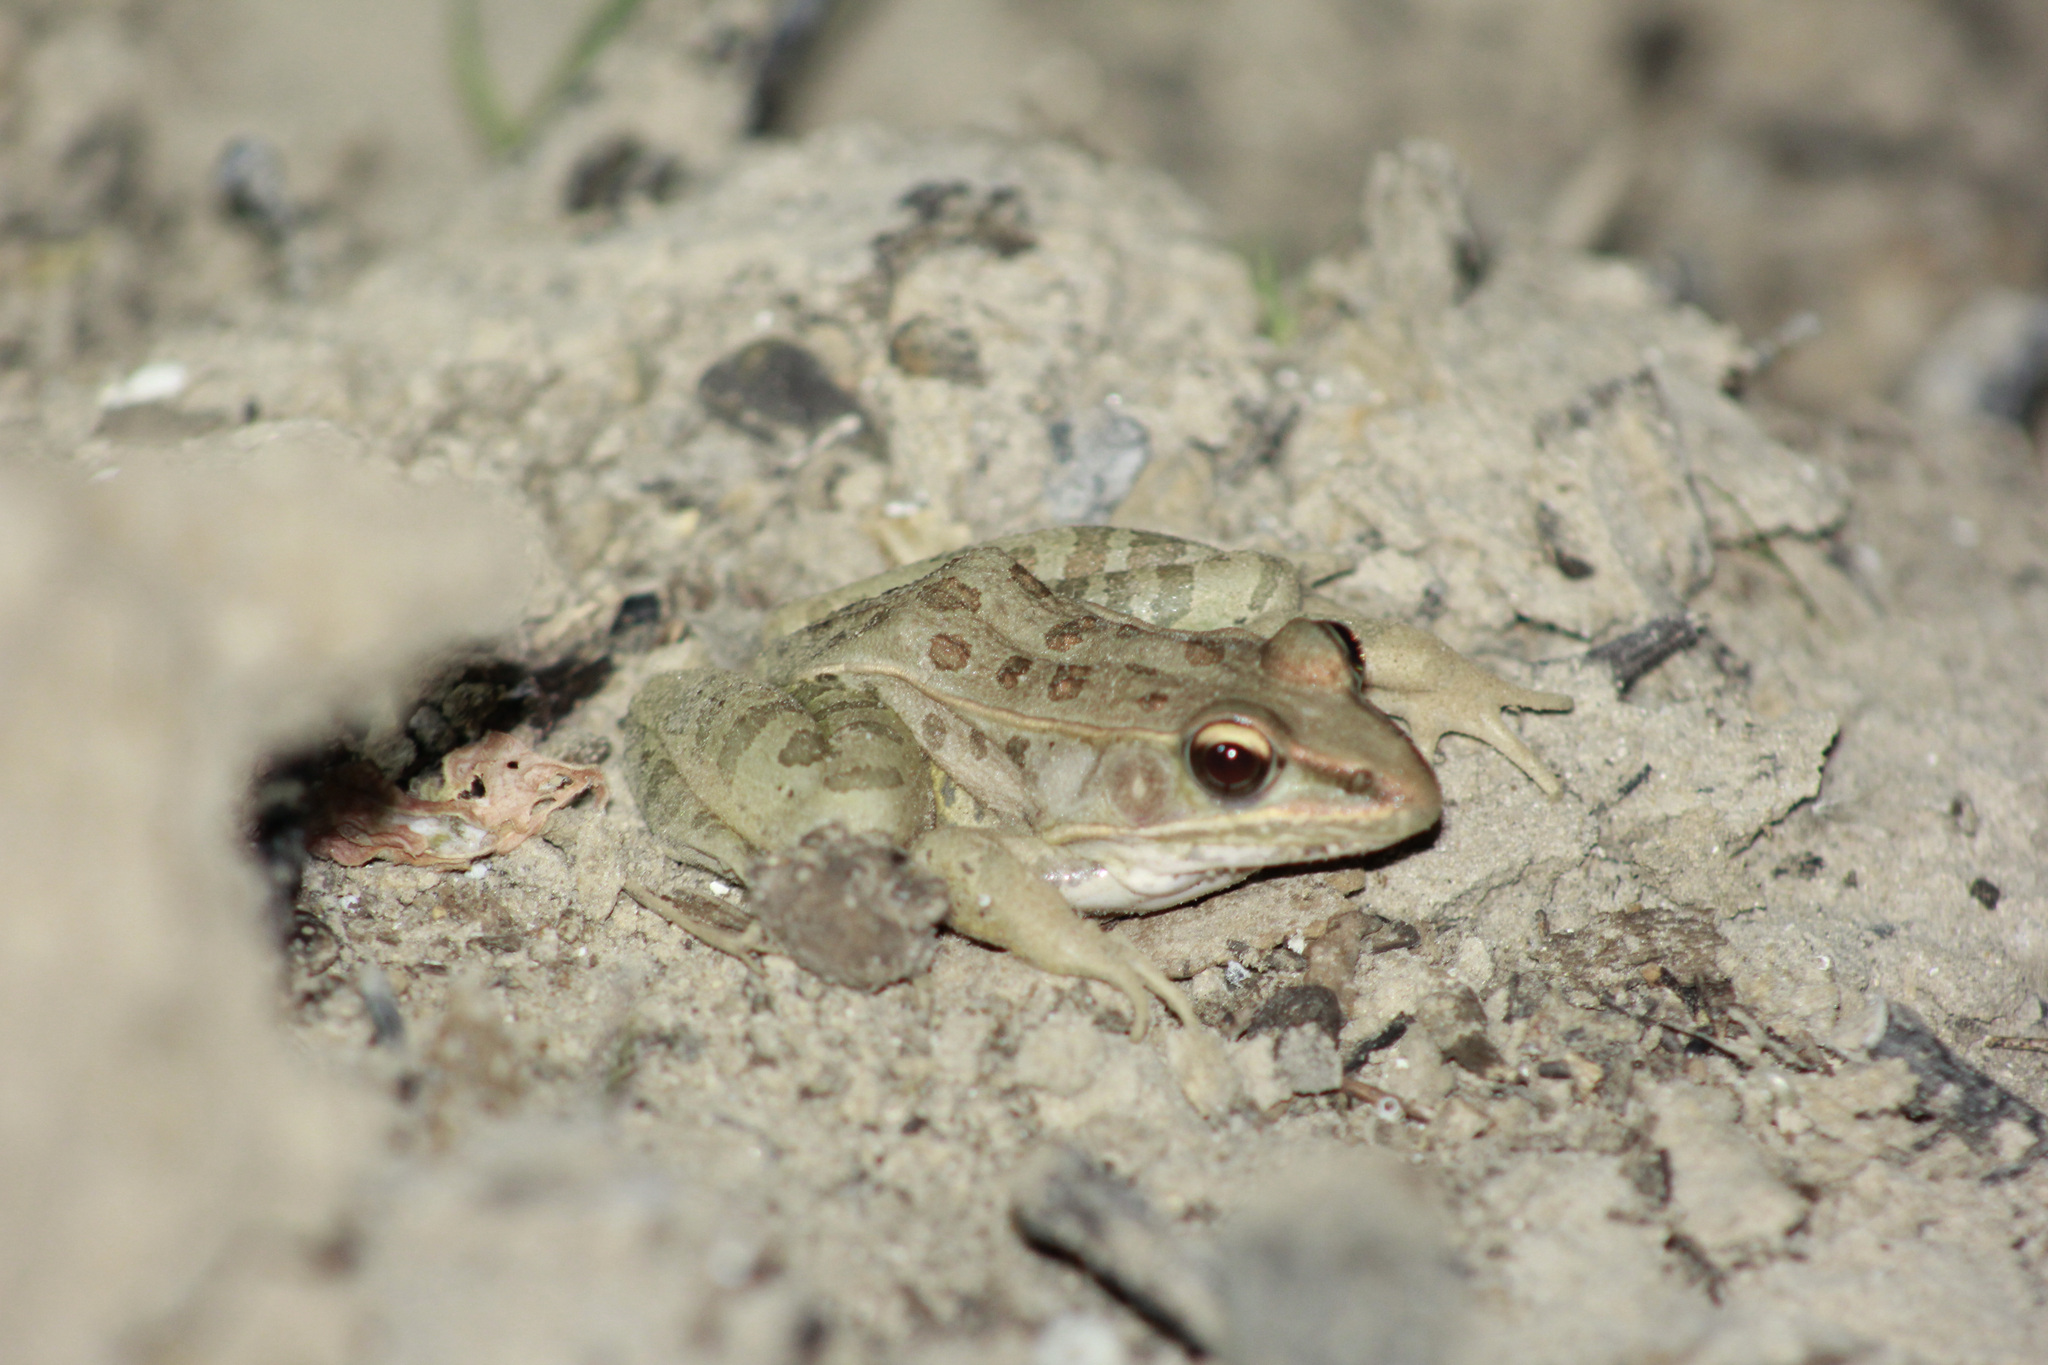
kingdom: Animalia
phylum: Chordata
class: Amphibia
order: Anura
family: Ranidae
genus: Lithobates
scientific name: Lithobates sphenocephalus
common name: Southern leopard frog
